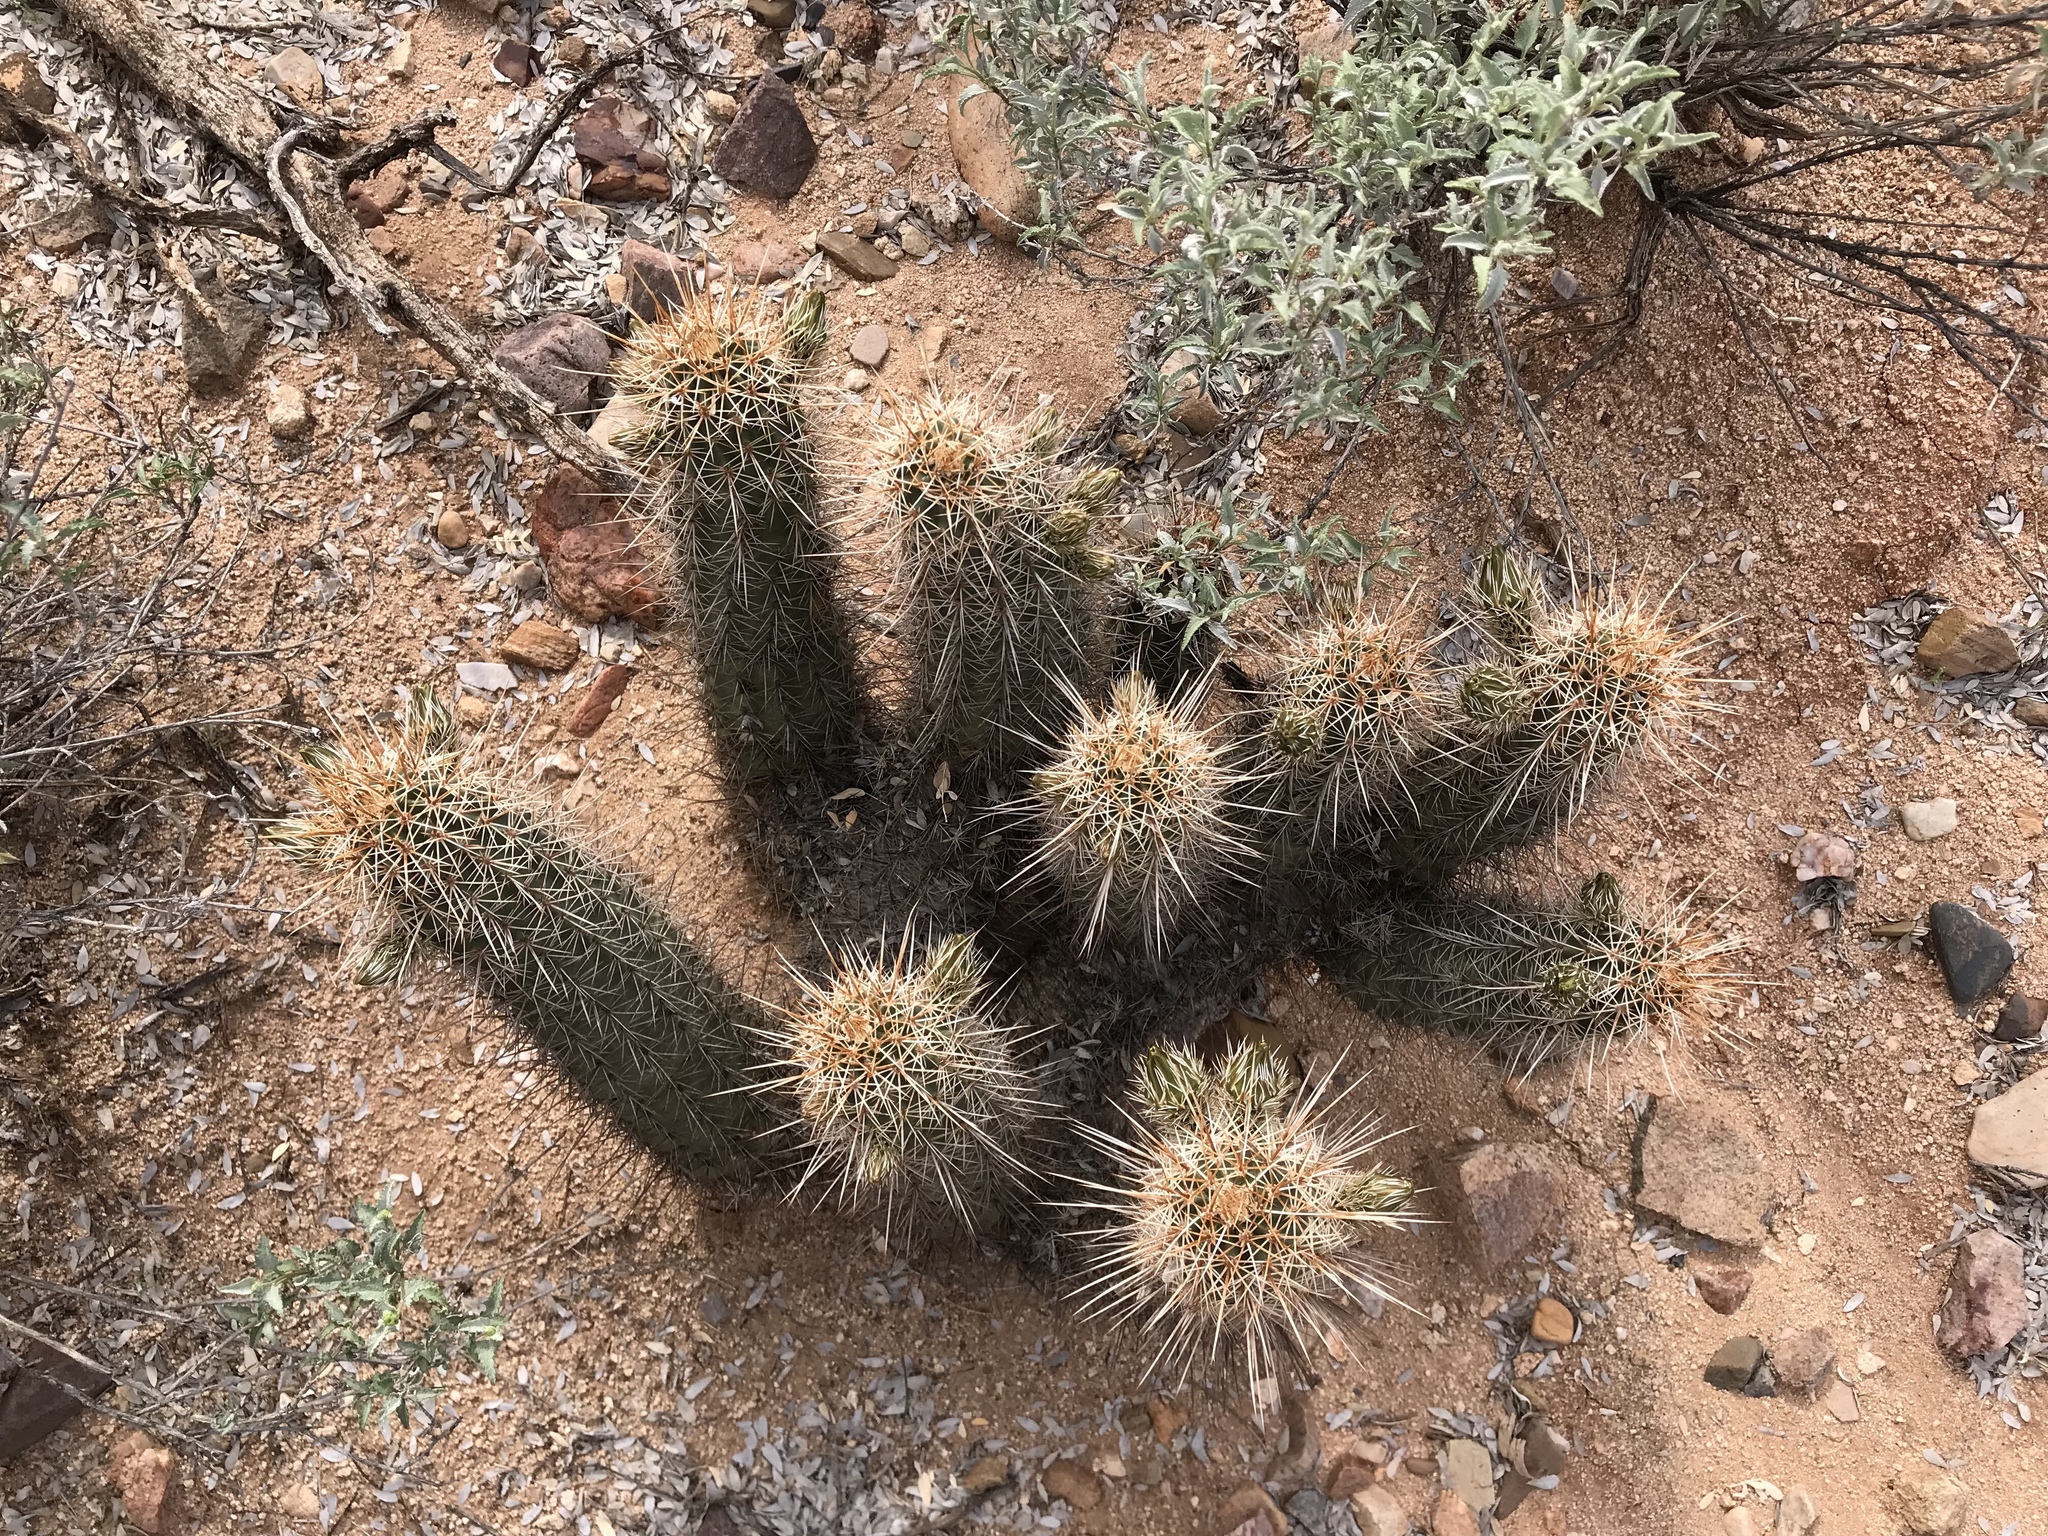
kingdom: Plantae
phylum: Tracheophyta
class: Magnoliopsida
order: Caryophyllales
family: Cactaceae
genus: Echinocereus
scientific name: Echinocereus fasciculatus
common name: Bundle hedgehog
